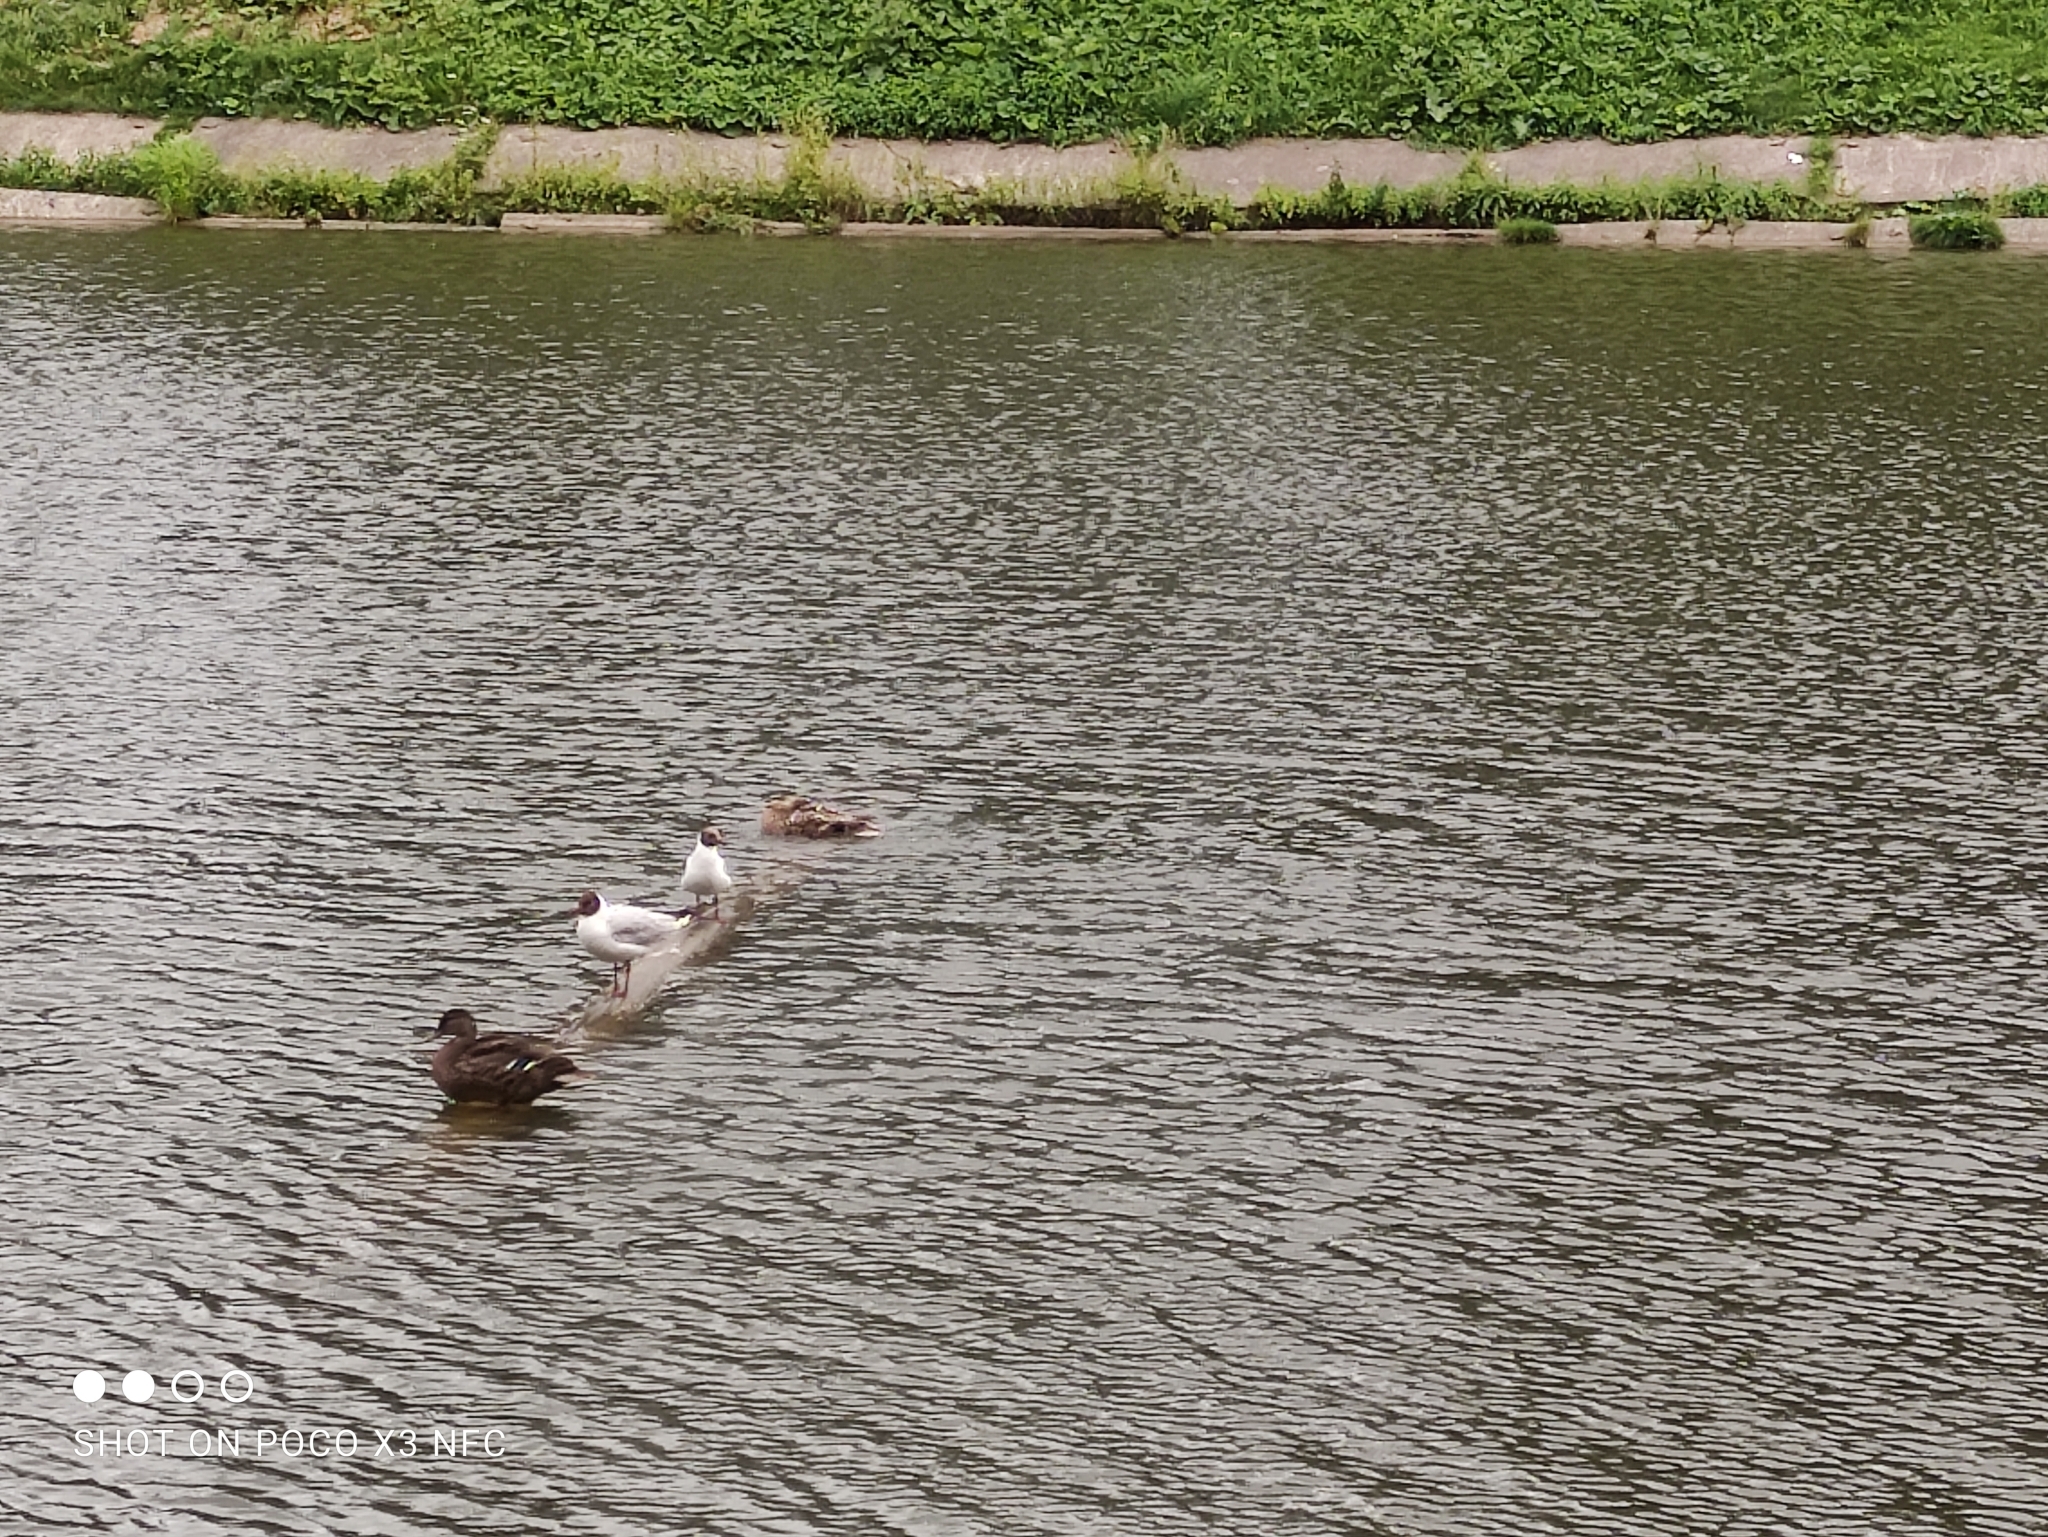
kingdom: Animalia
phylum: Chordata
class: Aves
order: Charadriiformes
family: Laridae
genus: Chroicocephalus
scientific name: Chroicocephalus ridibundus
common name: Black-headed gull
